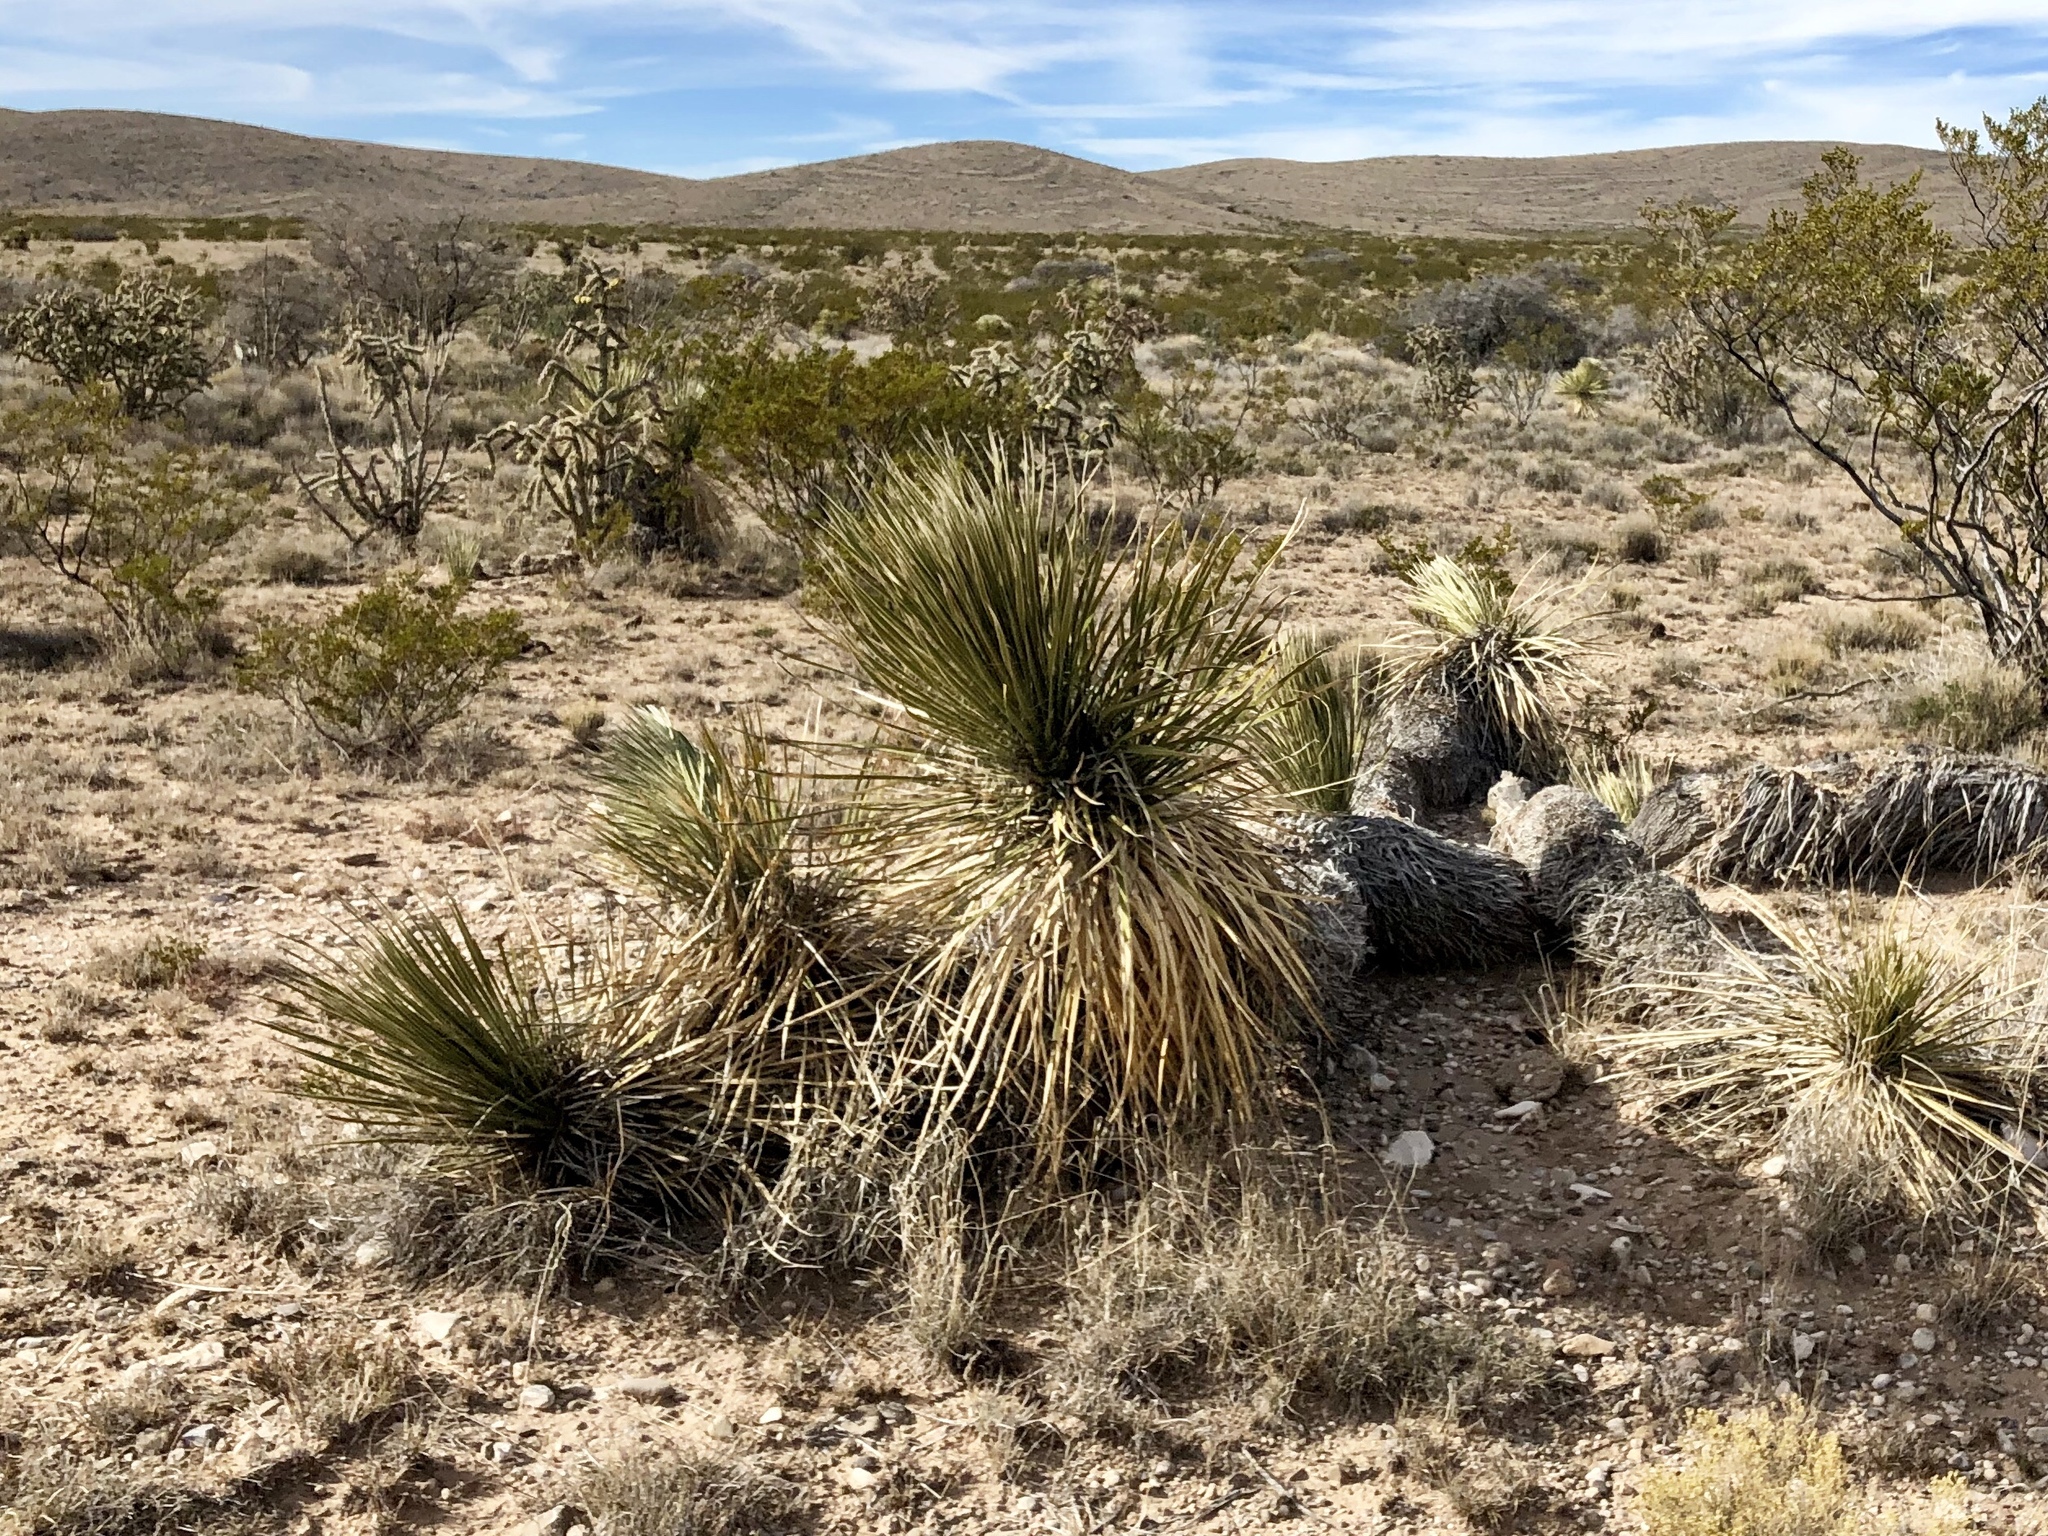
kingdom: Plantae
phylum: Tracheophyta
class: Liliopsida
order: Asparagales
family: Asparagaceae
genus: Yucca
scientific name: Yucca elata
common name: Palmella
